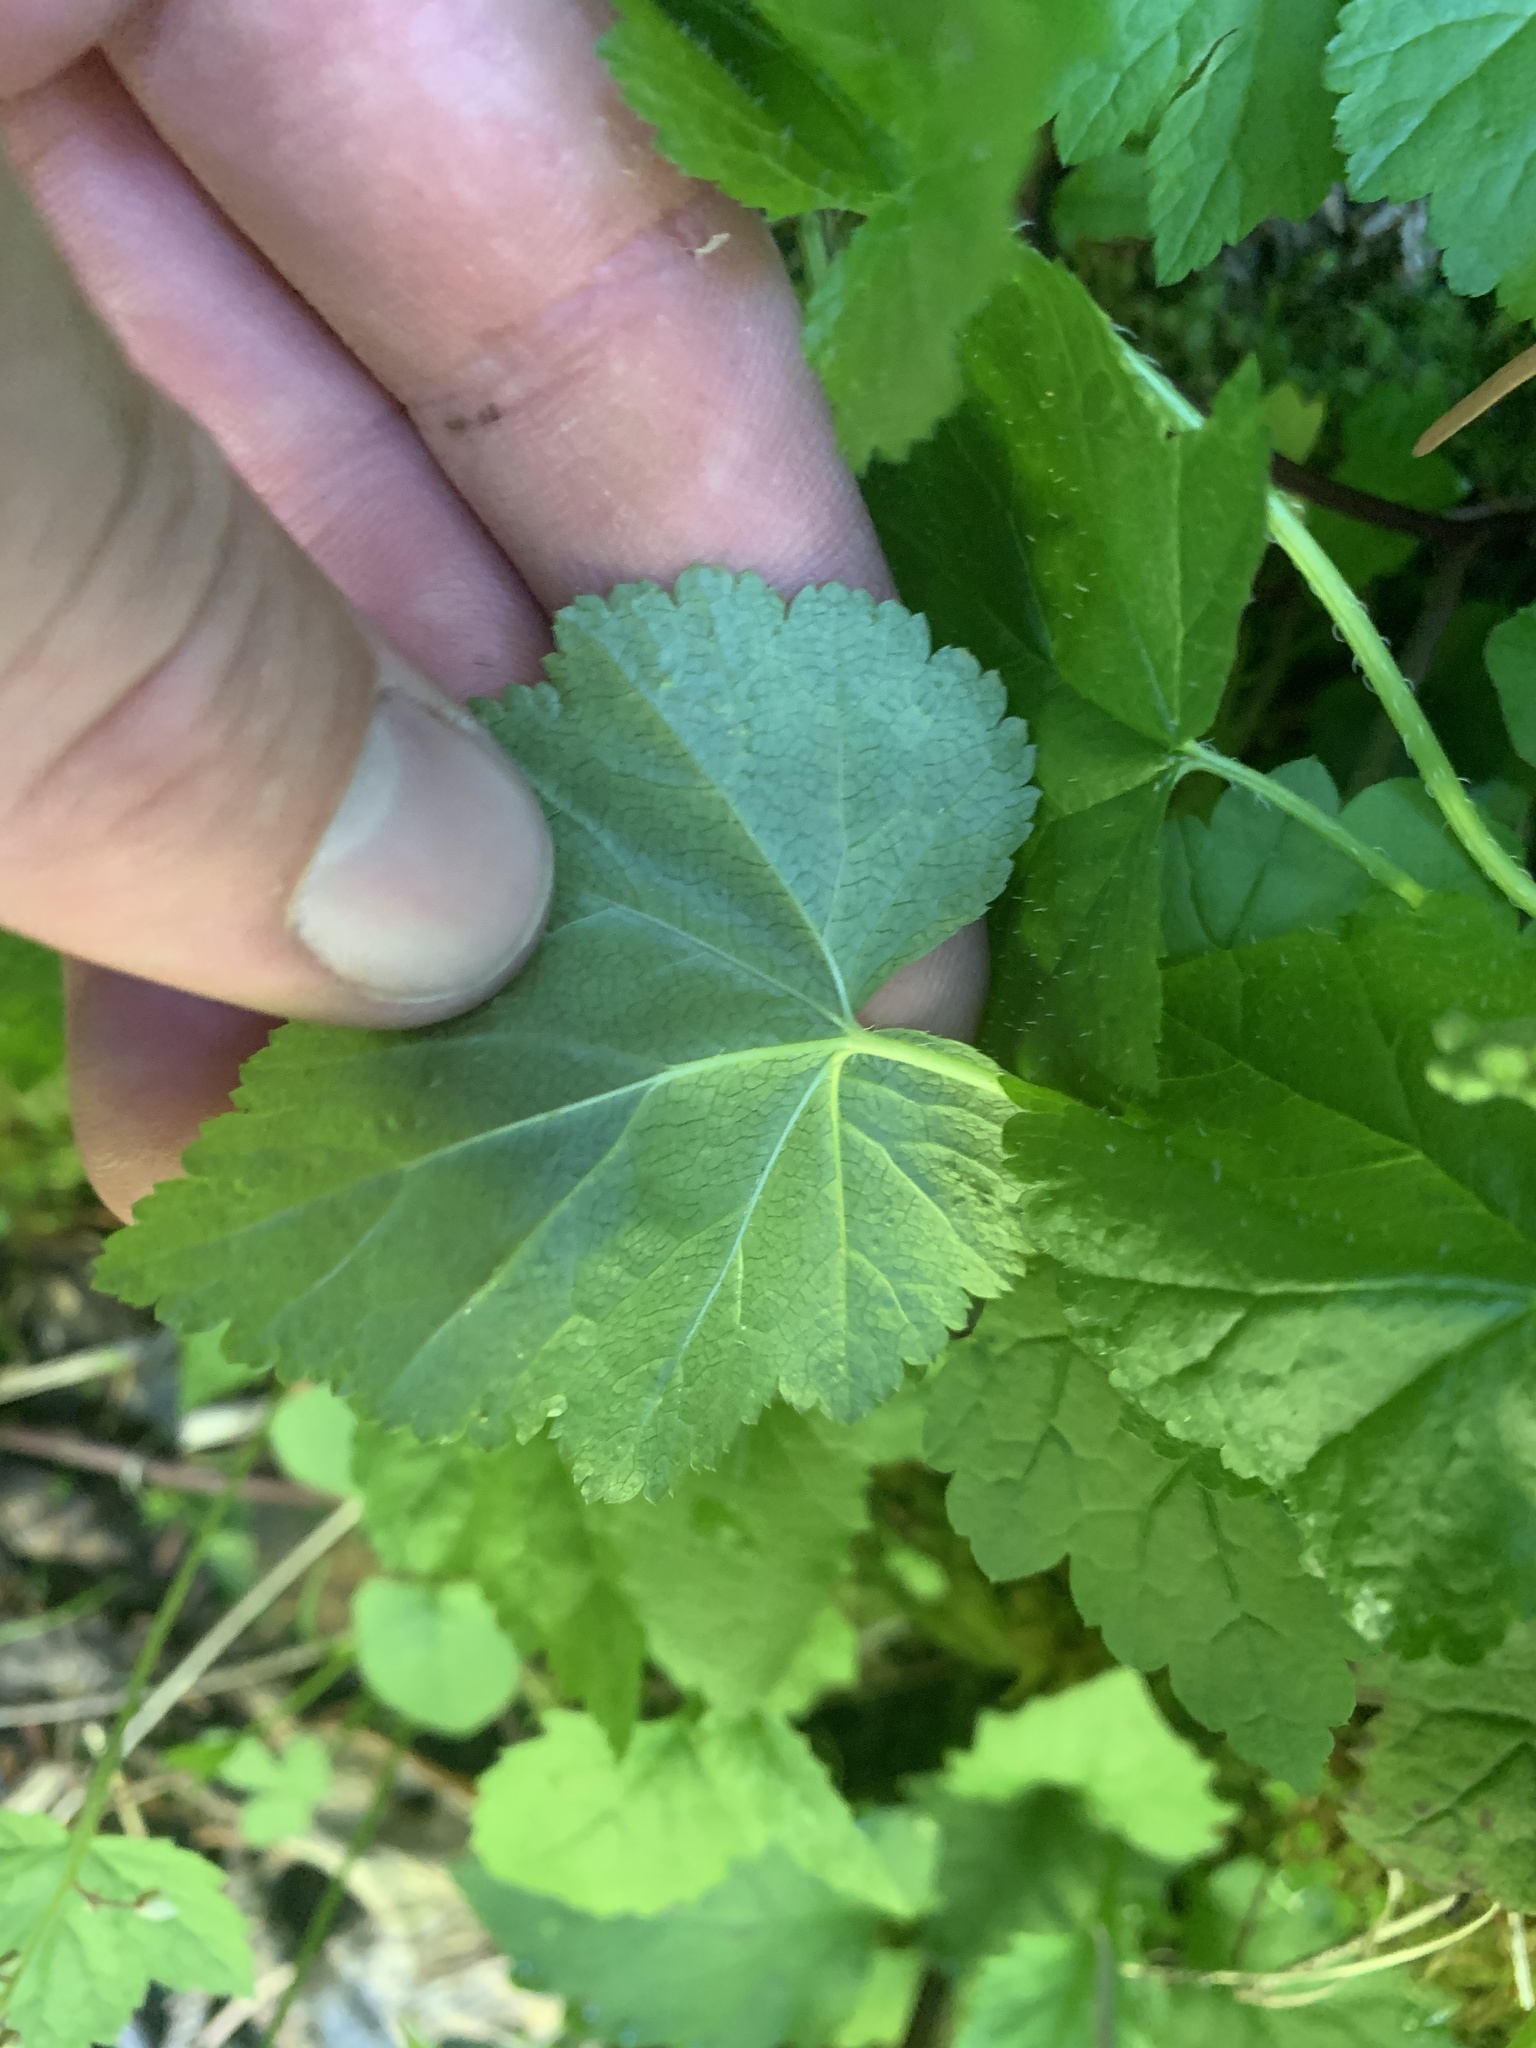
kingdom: Plantae
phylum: Tracheophyta
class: Magnoliopsida
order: Saxifragales
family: Saxifragaceae
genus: Pectiantia
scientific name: Pectiantia pentandra
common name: Alpine bishop's-cap
